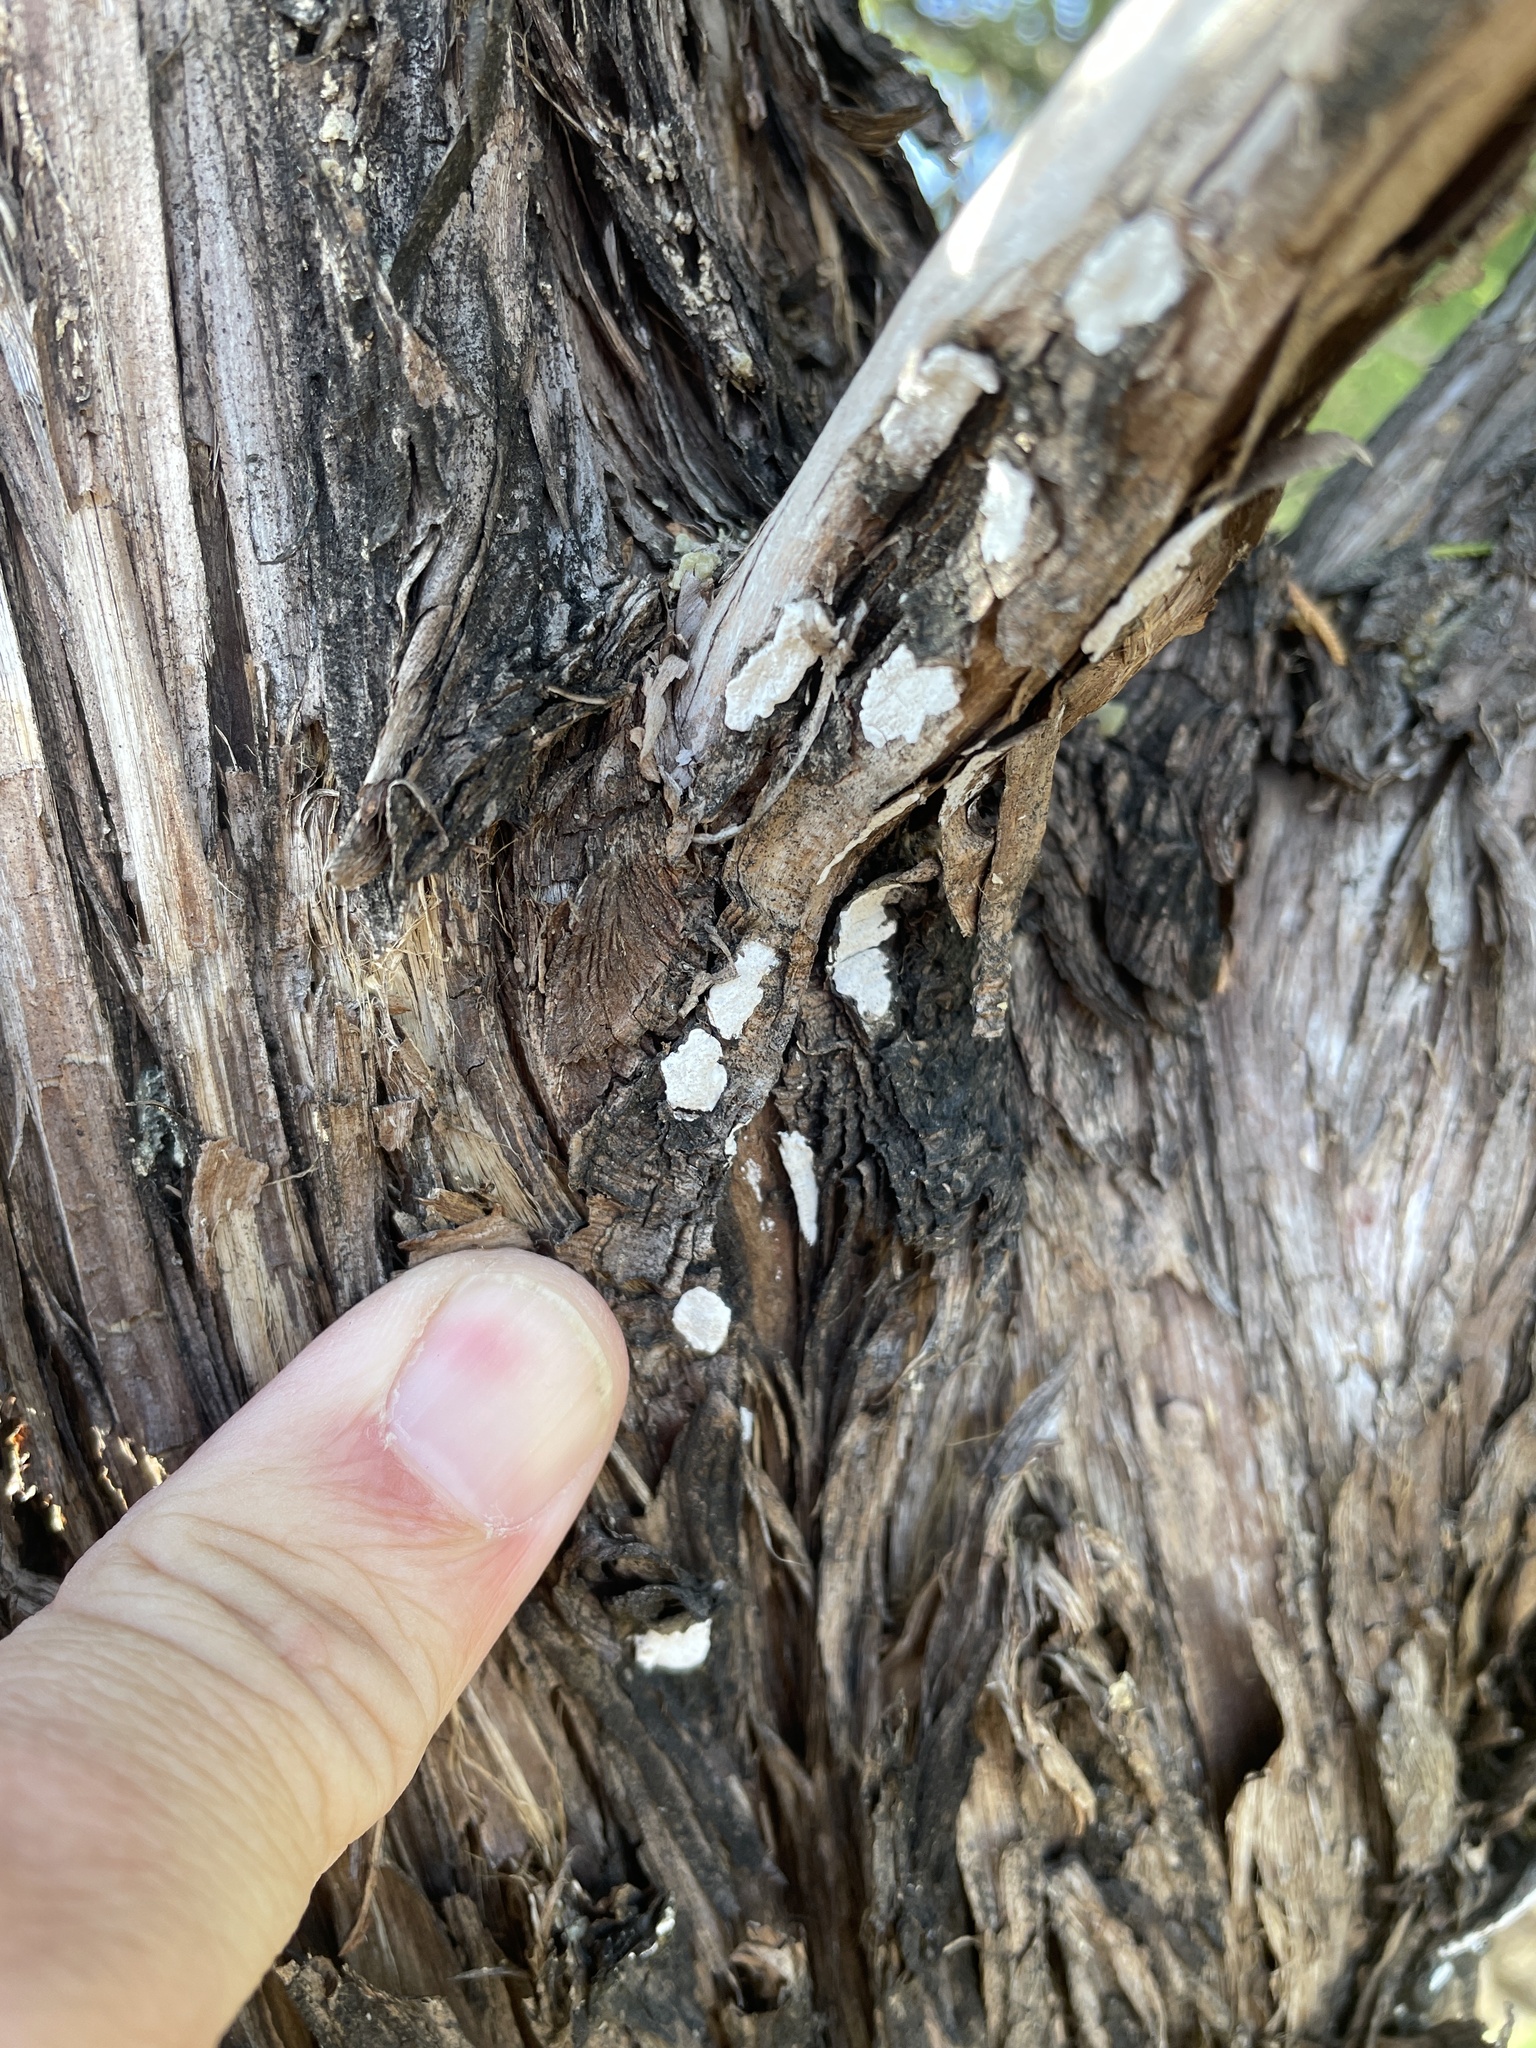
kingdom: Fungi
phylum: Basidiomycota
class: Agaricomycetes
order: Agaricales
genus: Dendrothele
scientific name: Dendrothele nivosa
